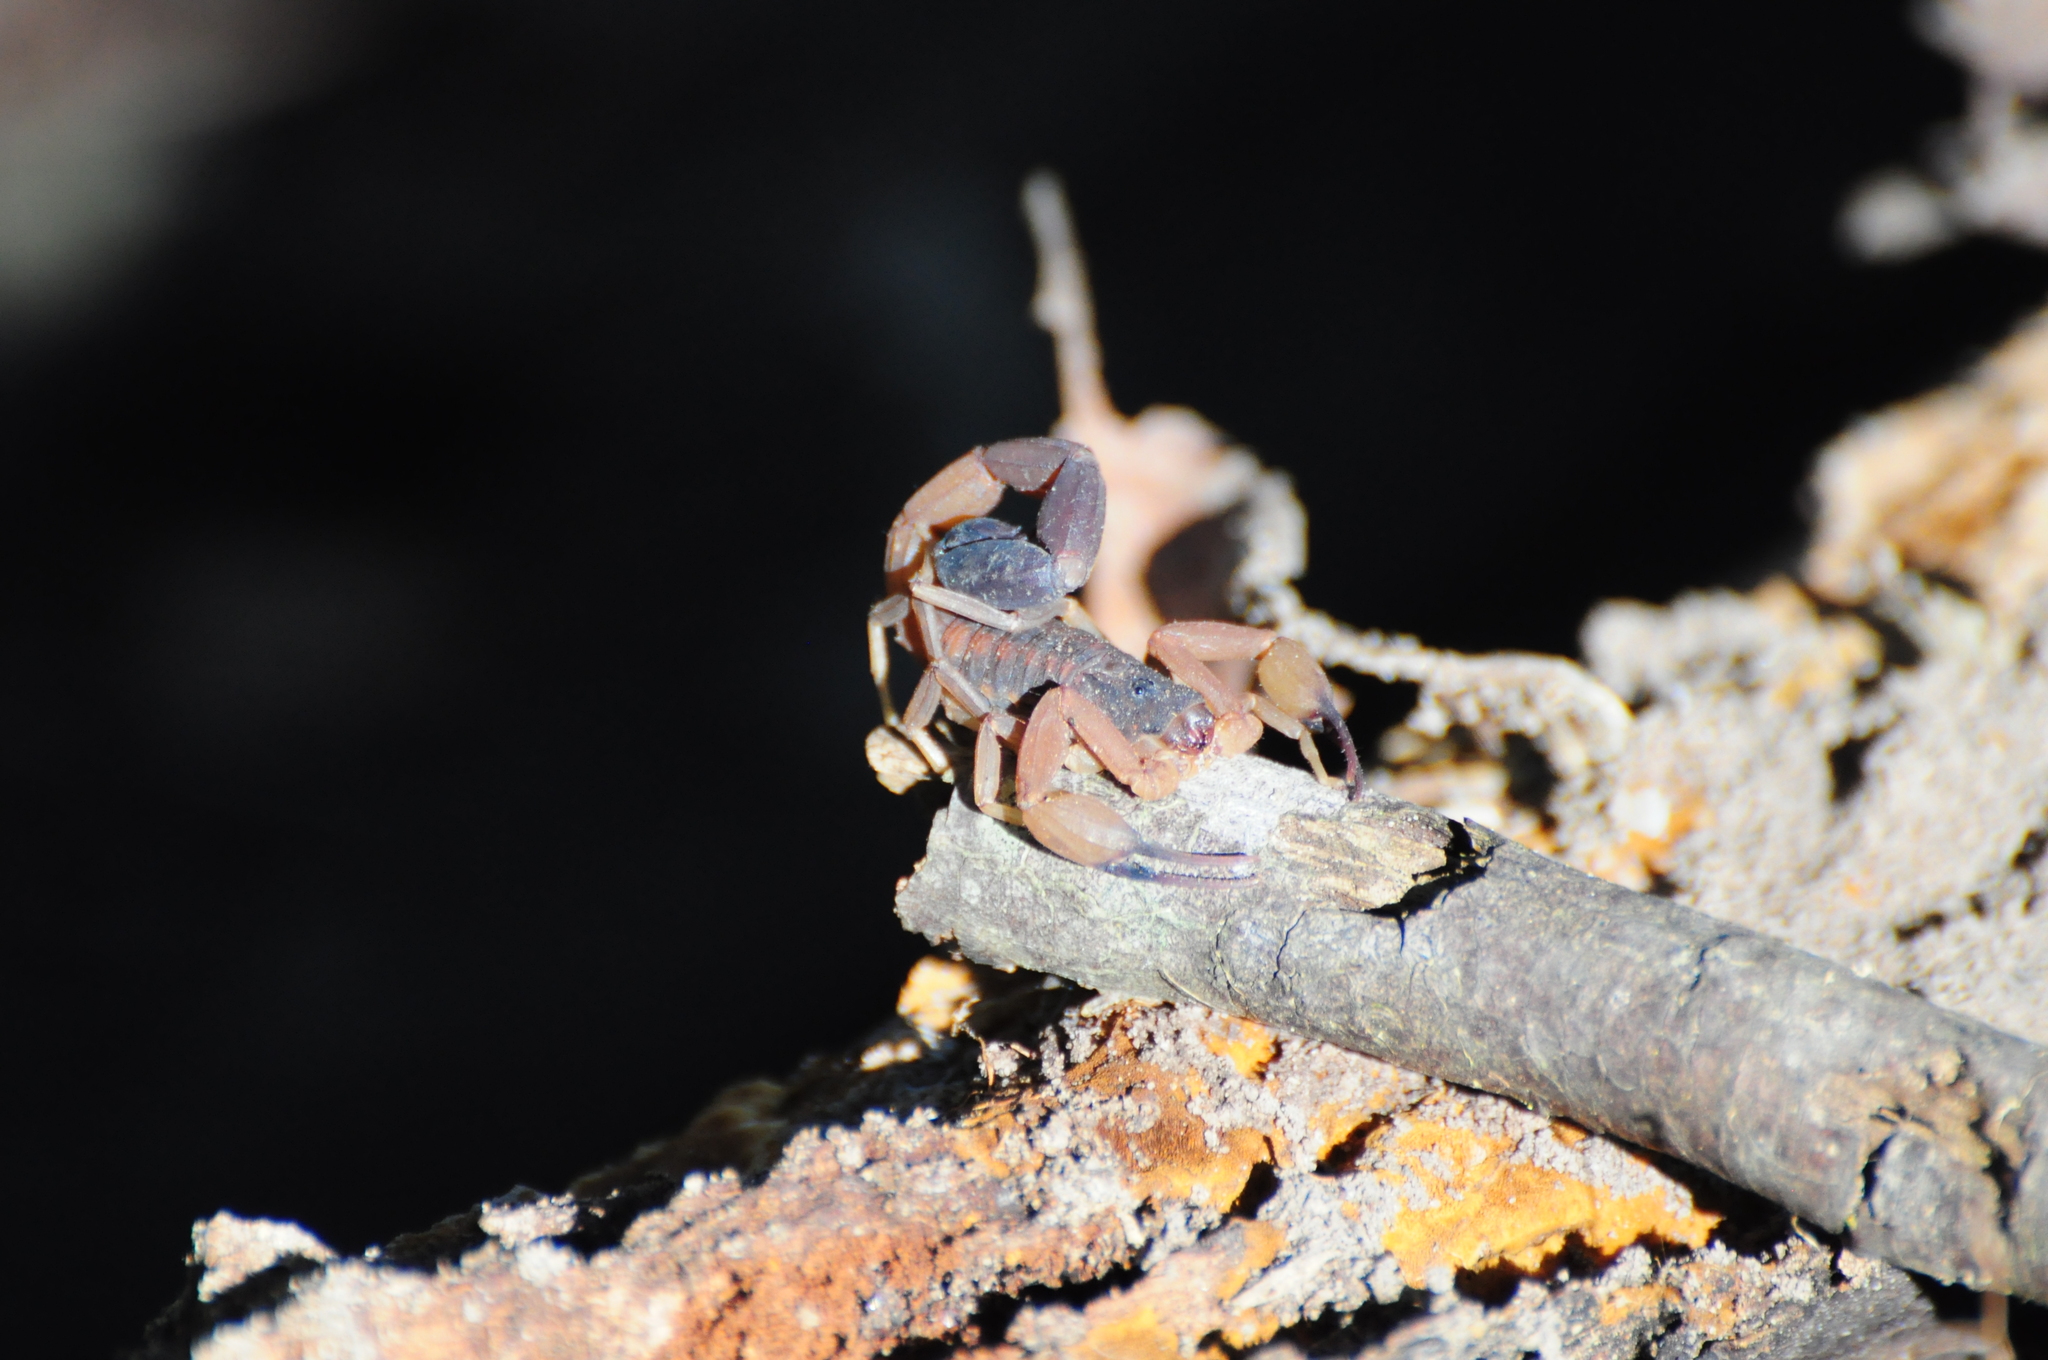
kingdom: Animalia
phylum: Arthropoda
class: Arachnida
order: Scorpiones
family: Buthidae
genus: Tityus
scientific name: Tityus carvalhoi
